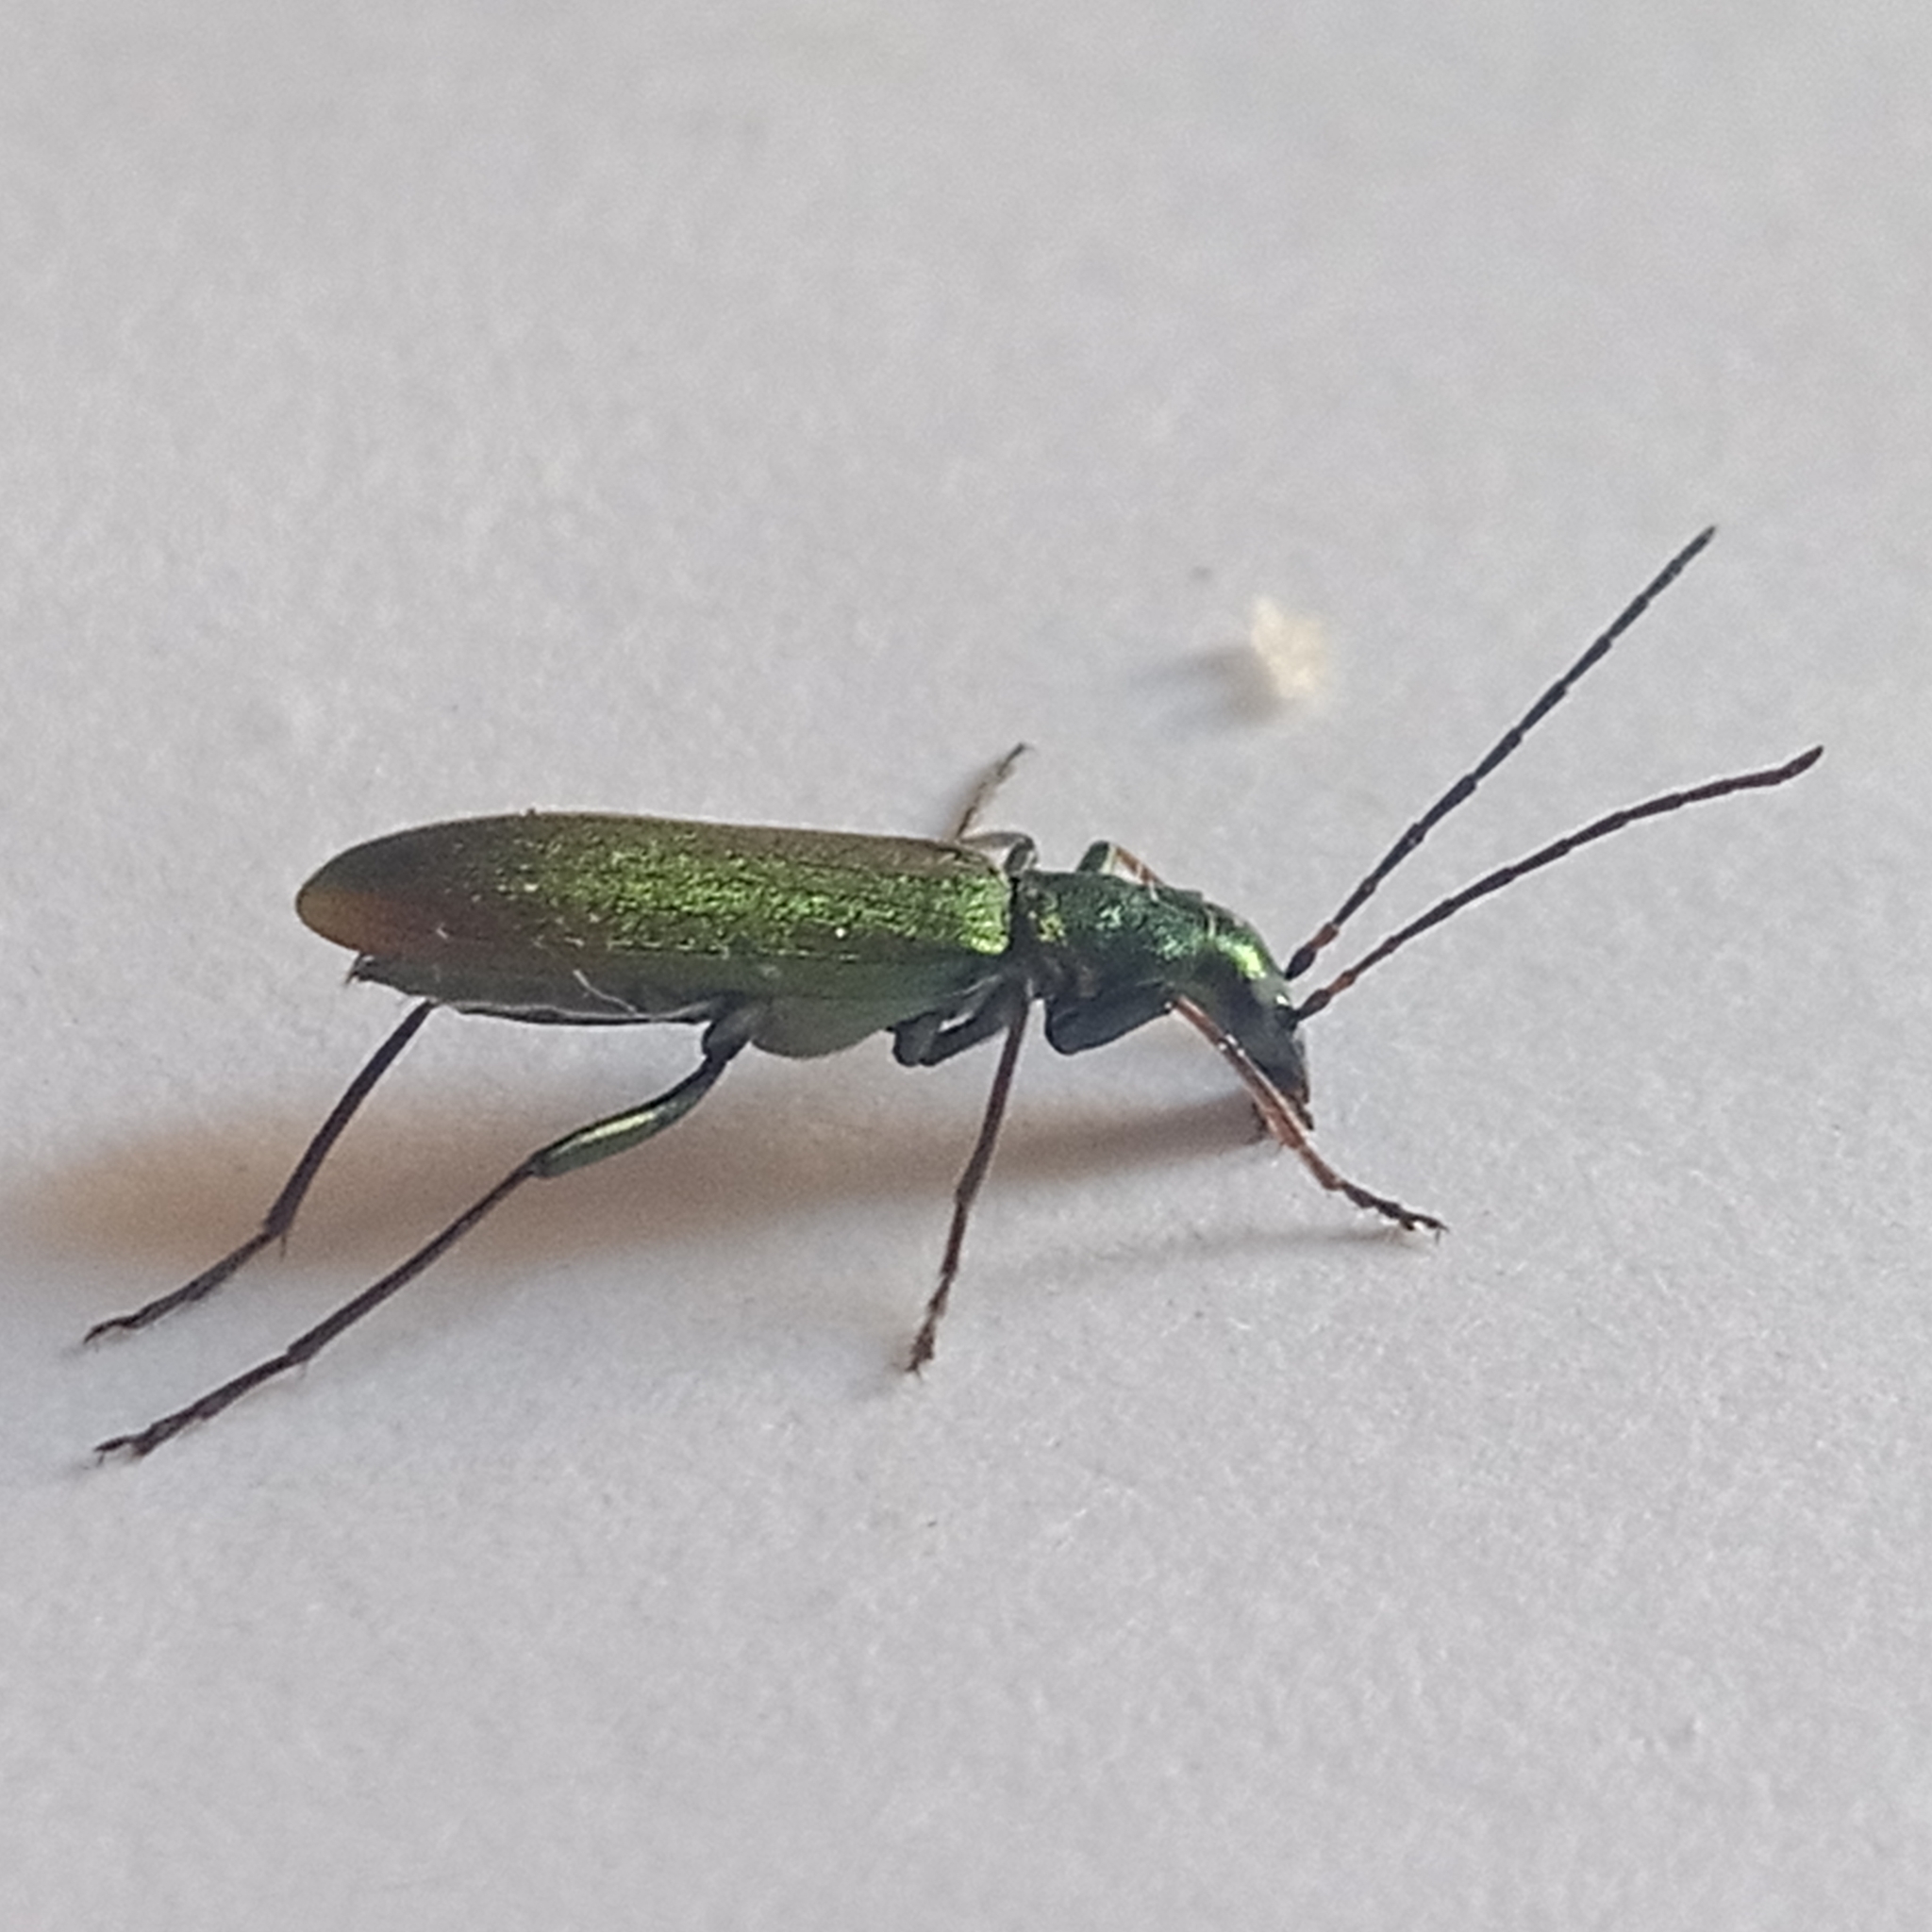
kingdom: Animalia
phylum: Arthropoda
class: Insecta
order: Coleoptera
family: Oedemeridae
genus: Chrysanthia
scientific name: Chrysanthia viridissima
